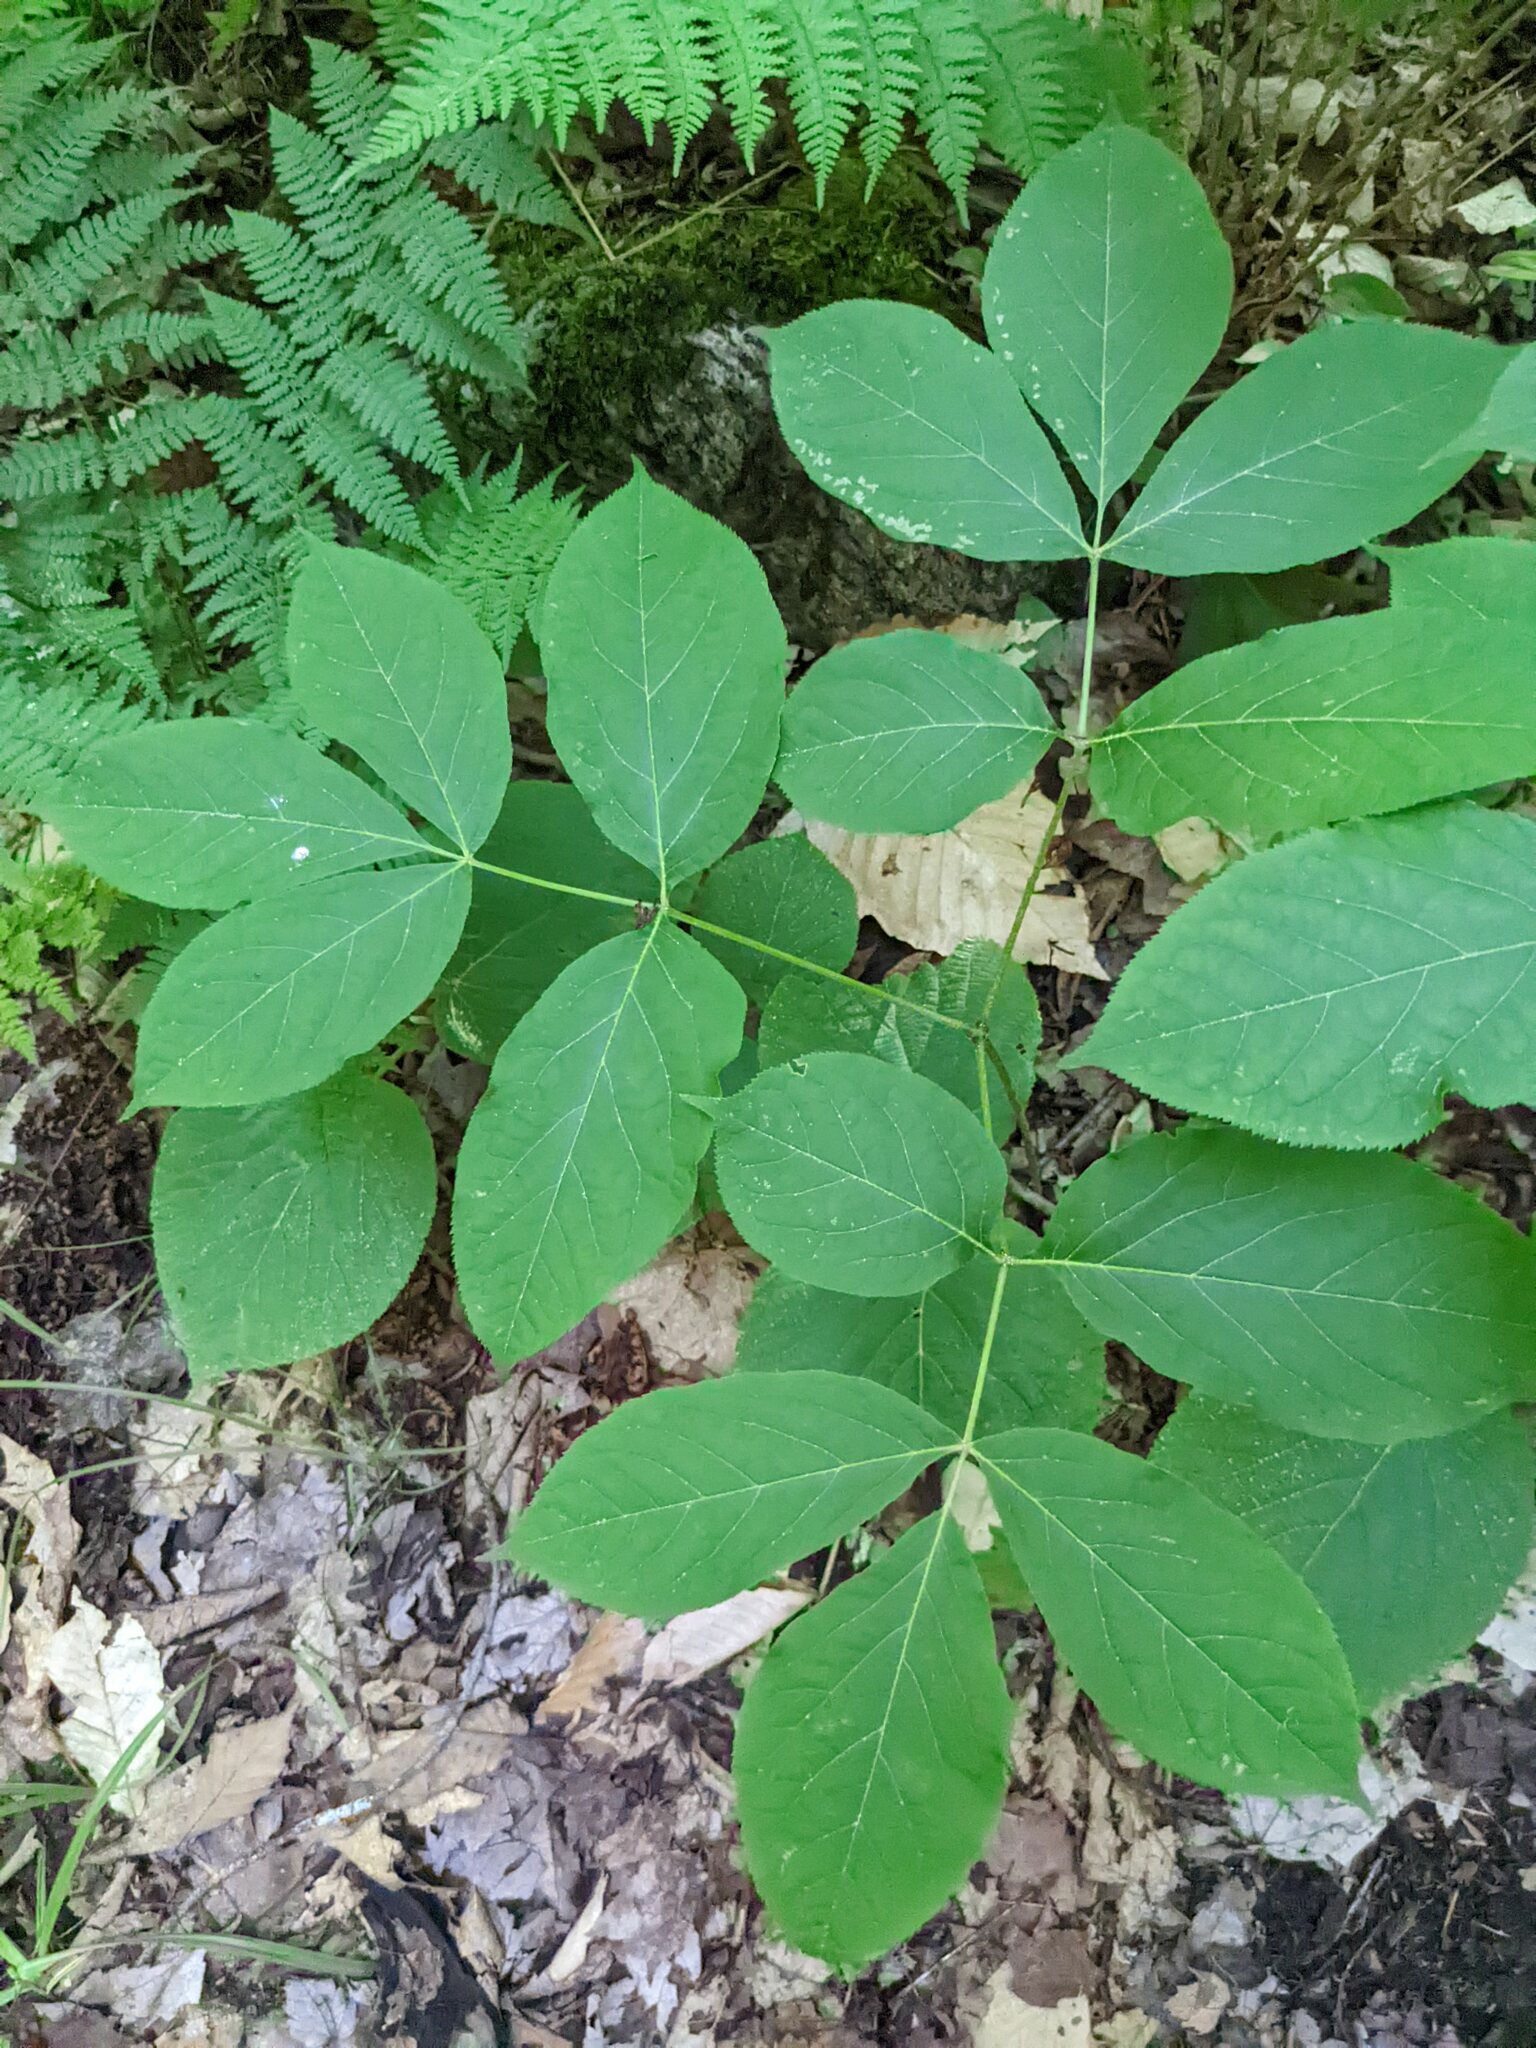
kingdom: Plantae
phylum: Tracheophyta
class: Magnoliopsida
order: Apiales
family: Araliaceae
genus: Aralia
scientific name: Aralia nudicaulis
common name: Wild sarsaparilla
